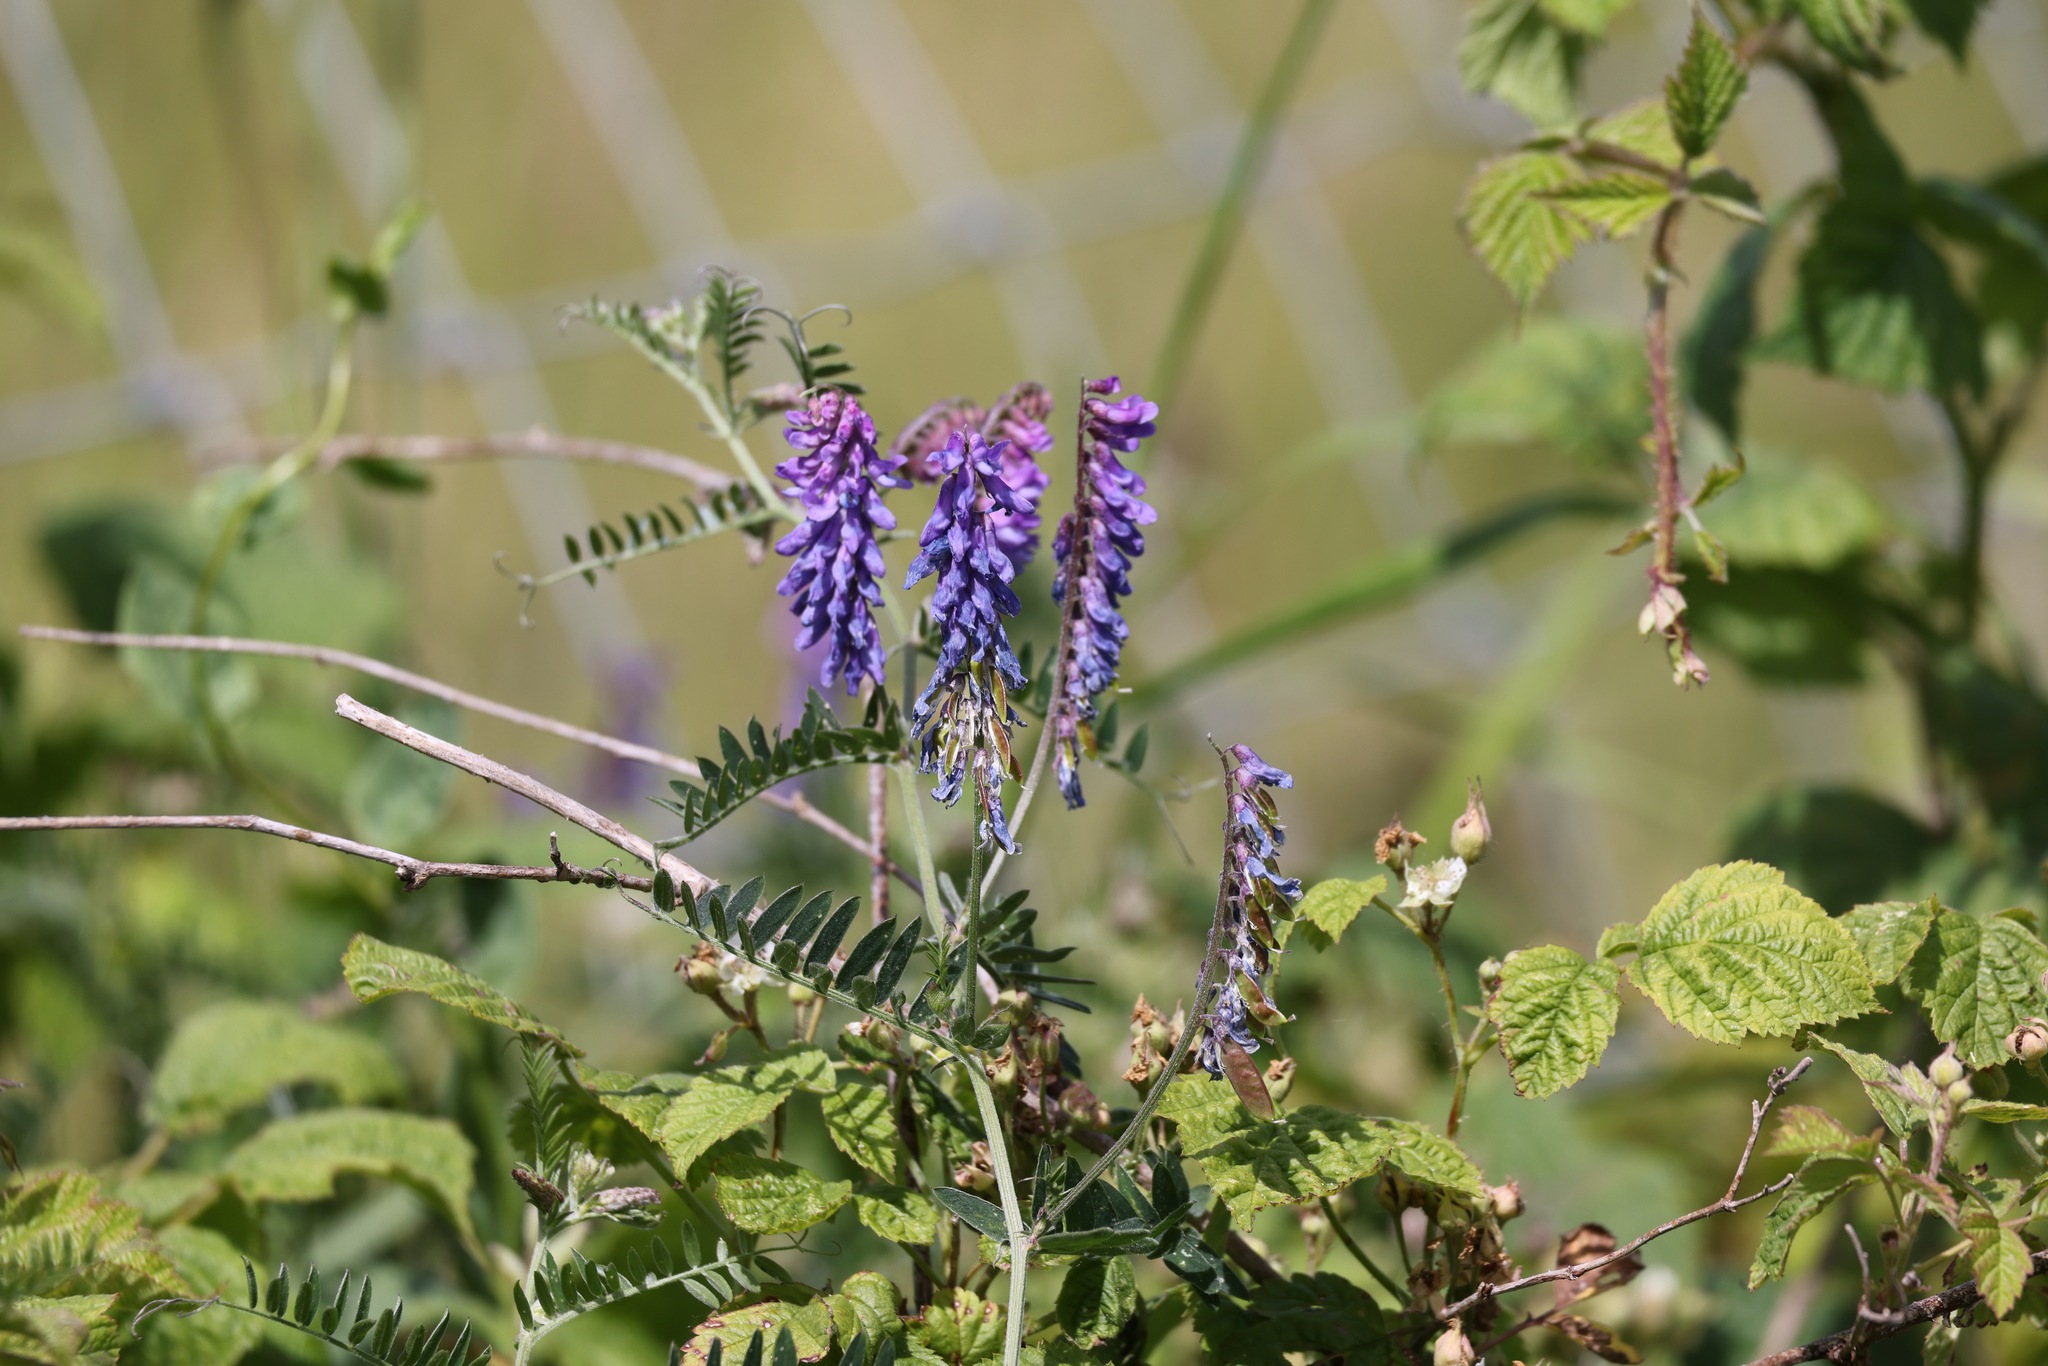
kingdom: Plantae
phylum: Tracheophyta
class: Magnoliopsida
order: Fabales
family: Fabaceae
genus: Vicia
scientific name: Vicia cracca
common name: Bird vetch
